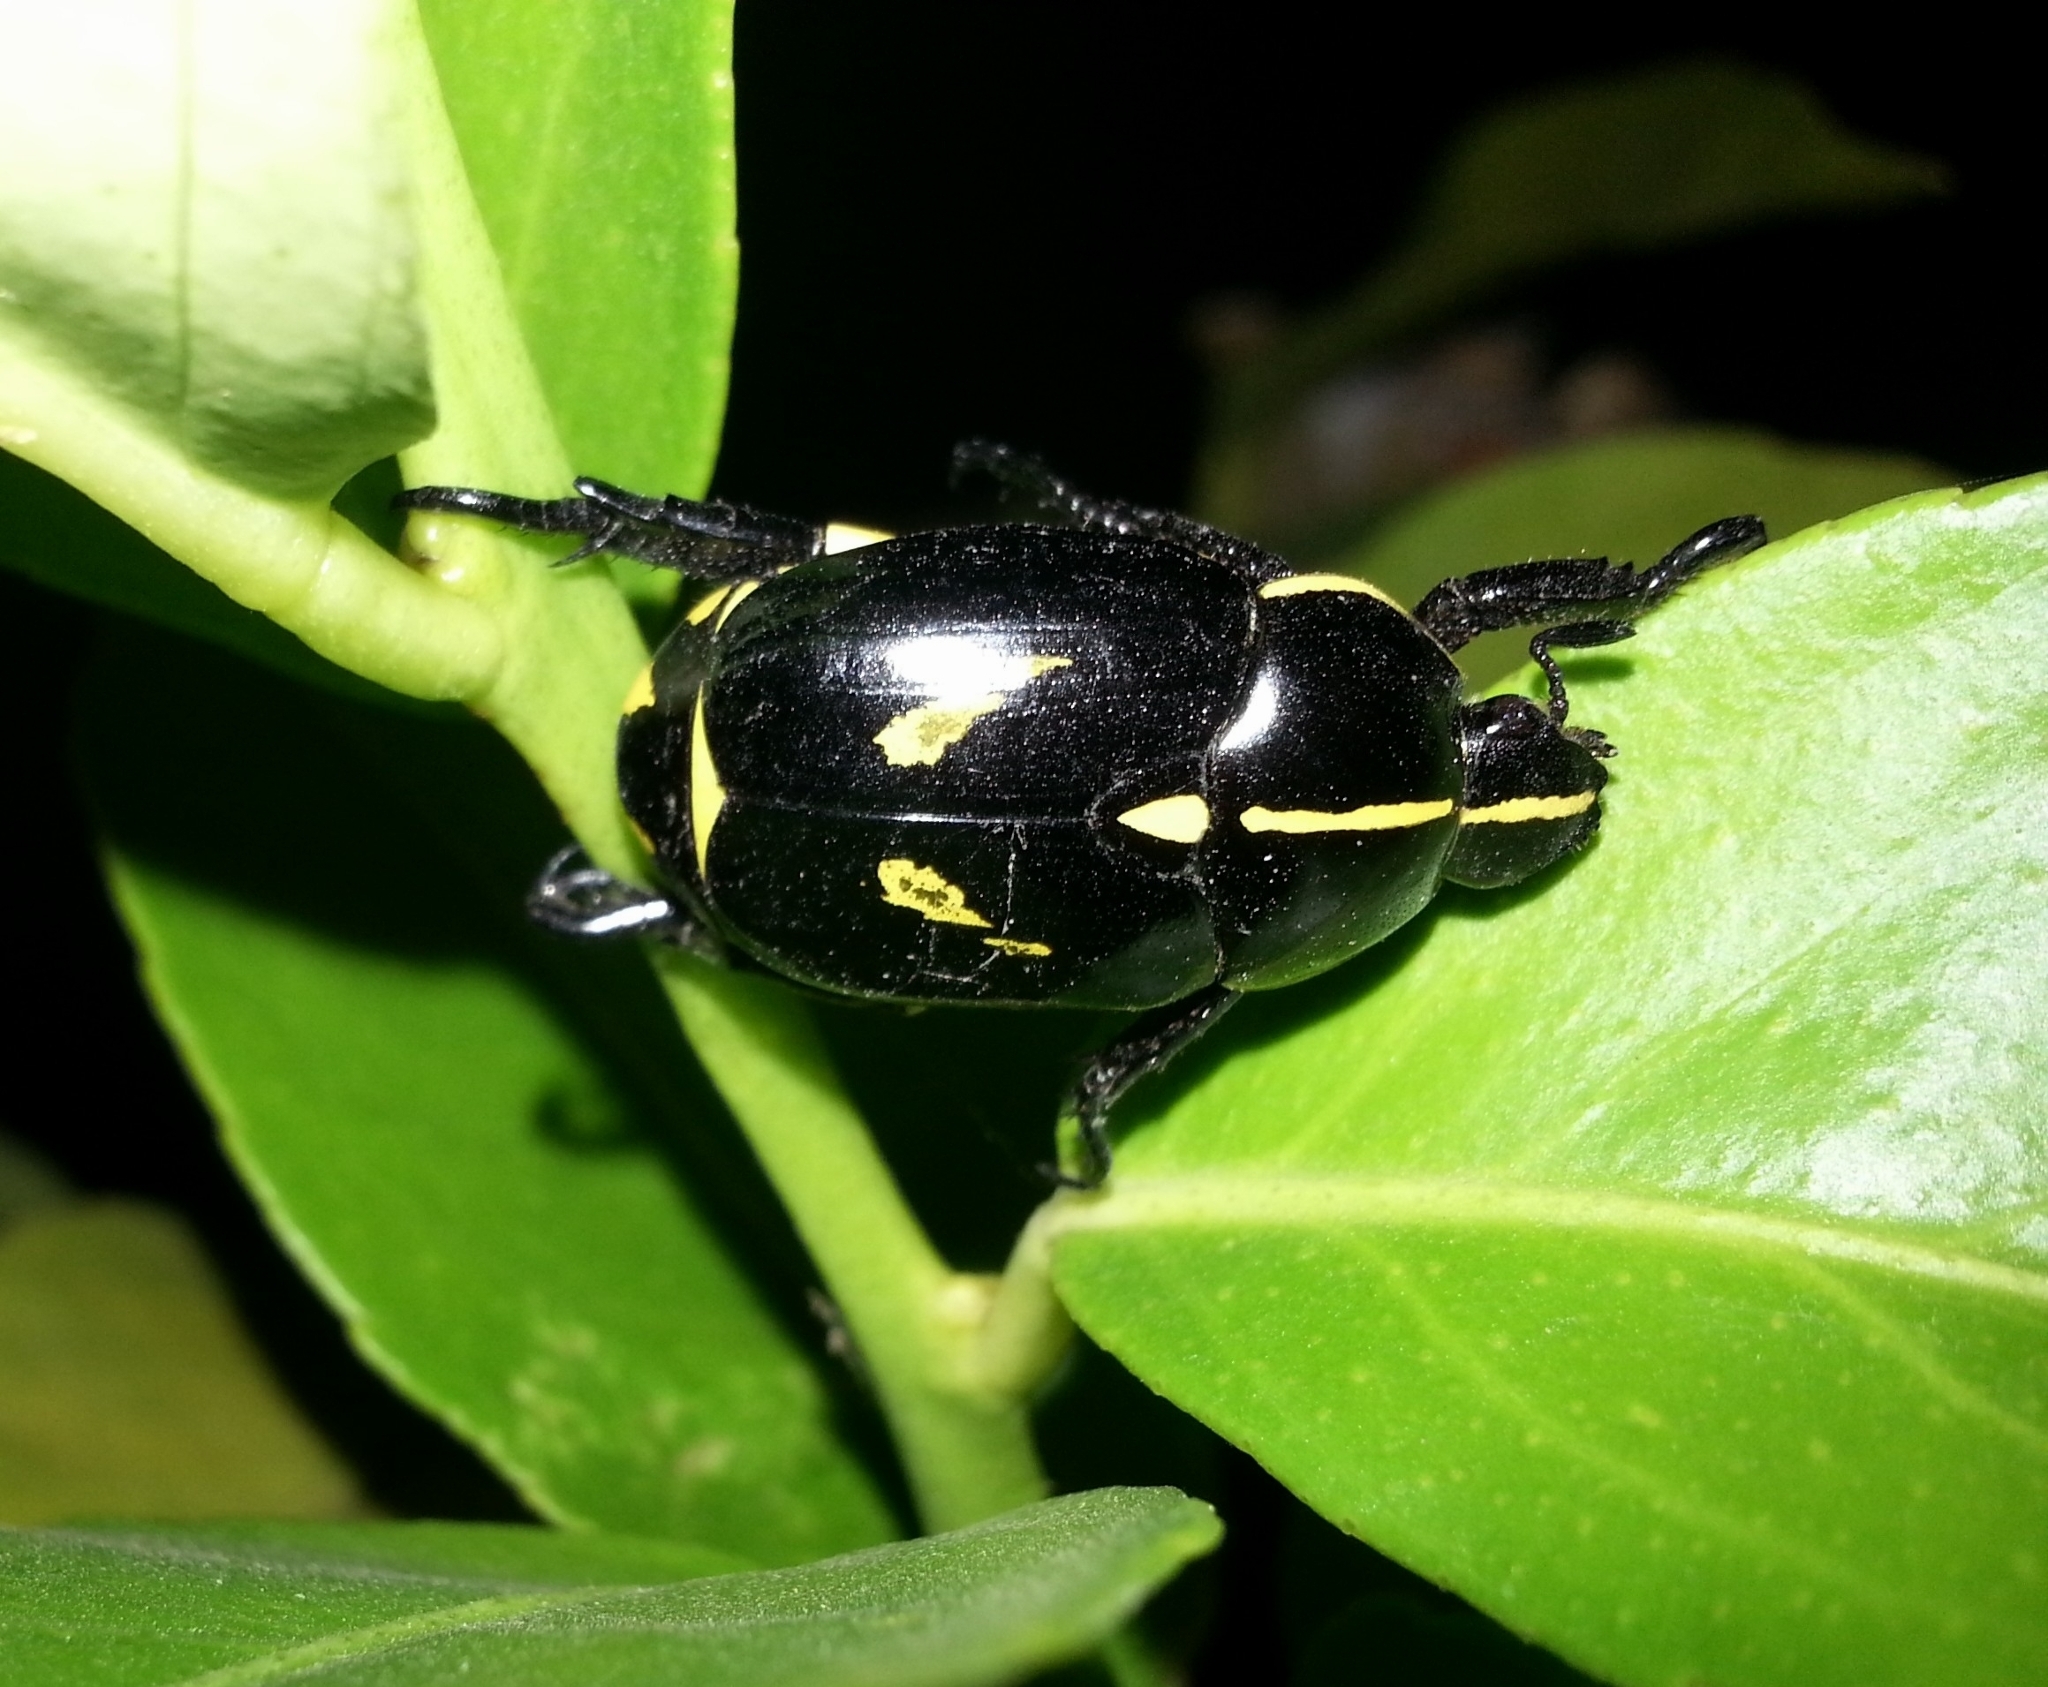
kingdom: Animalia
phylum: Arthropoda
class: Insecta
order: Coleoptera
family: Scarabaeidae
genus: Rutela
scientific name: Rutela lineola
